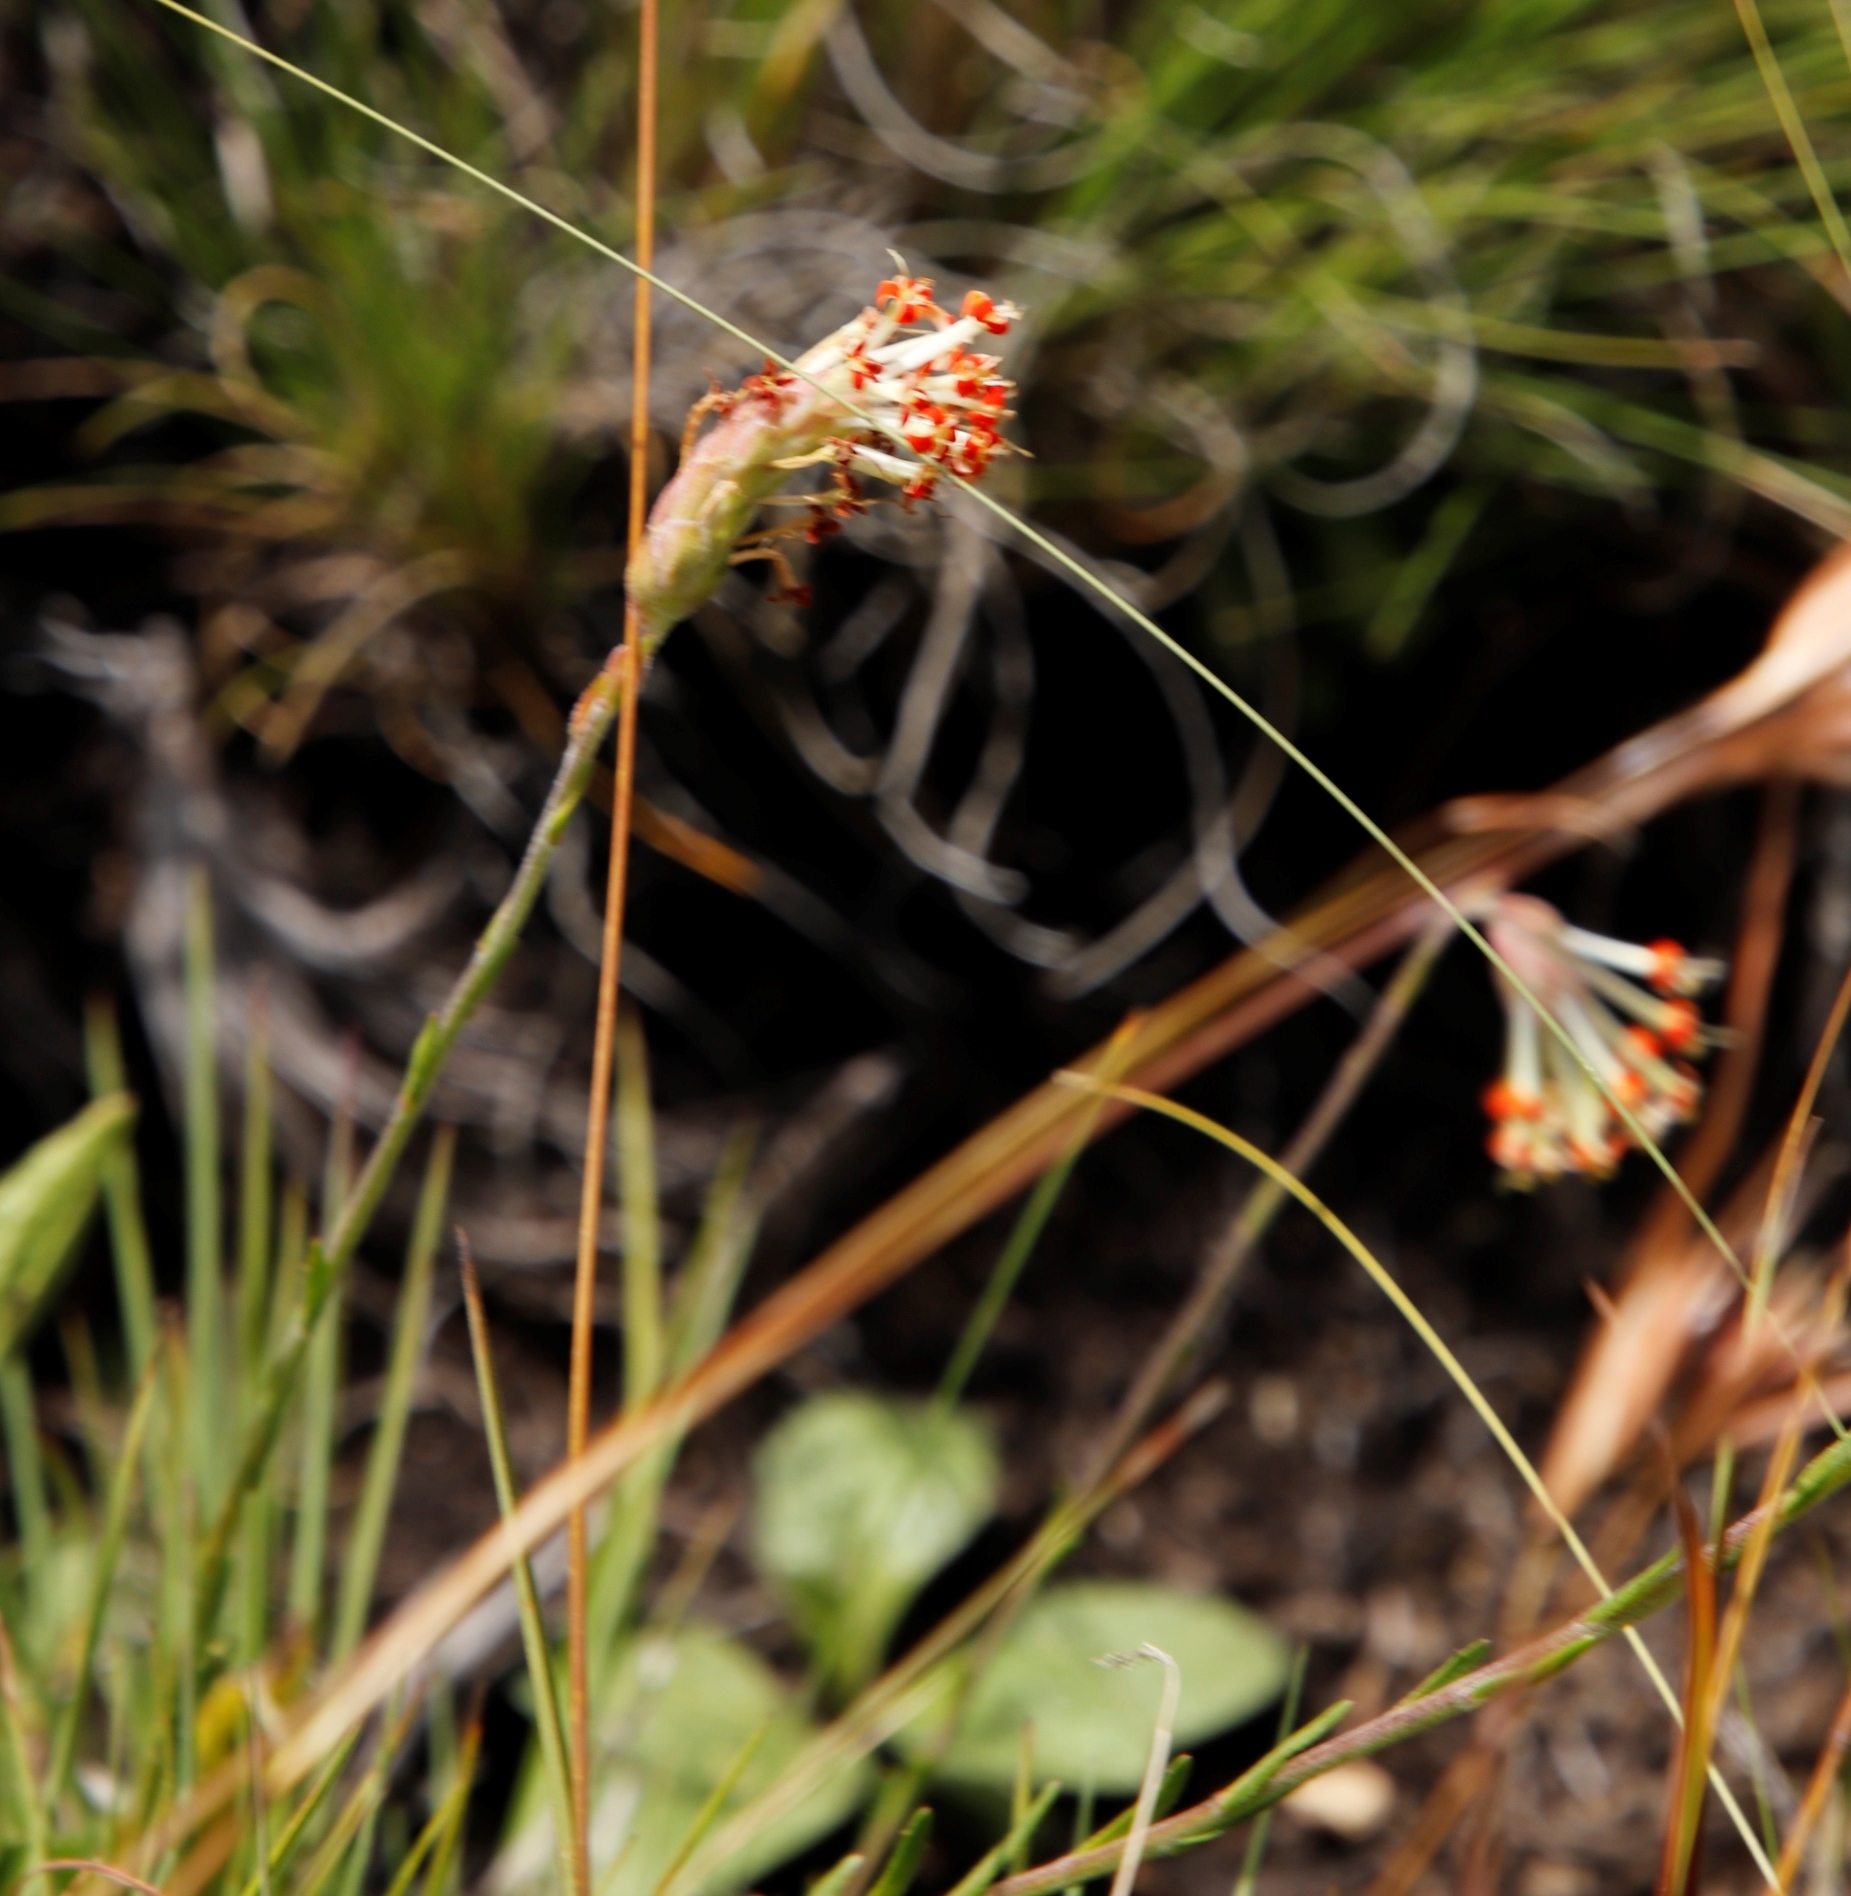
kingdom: Plantae
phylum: Tracheophyta
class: Magnoliopsida
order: Lamiales
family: Scrophulariaceae
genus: Glumicalyx
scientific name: Glumicalyx nutans
